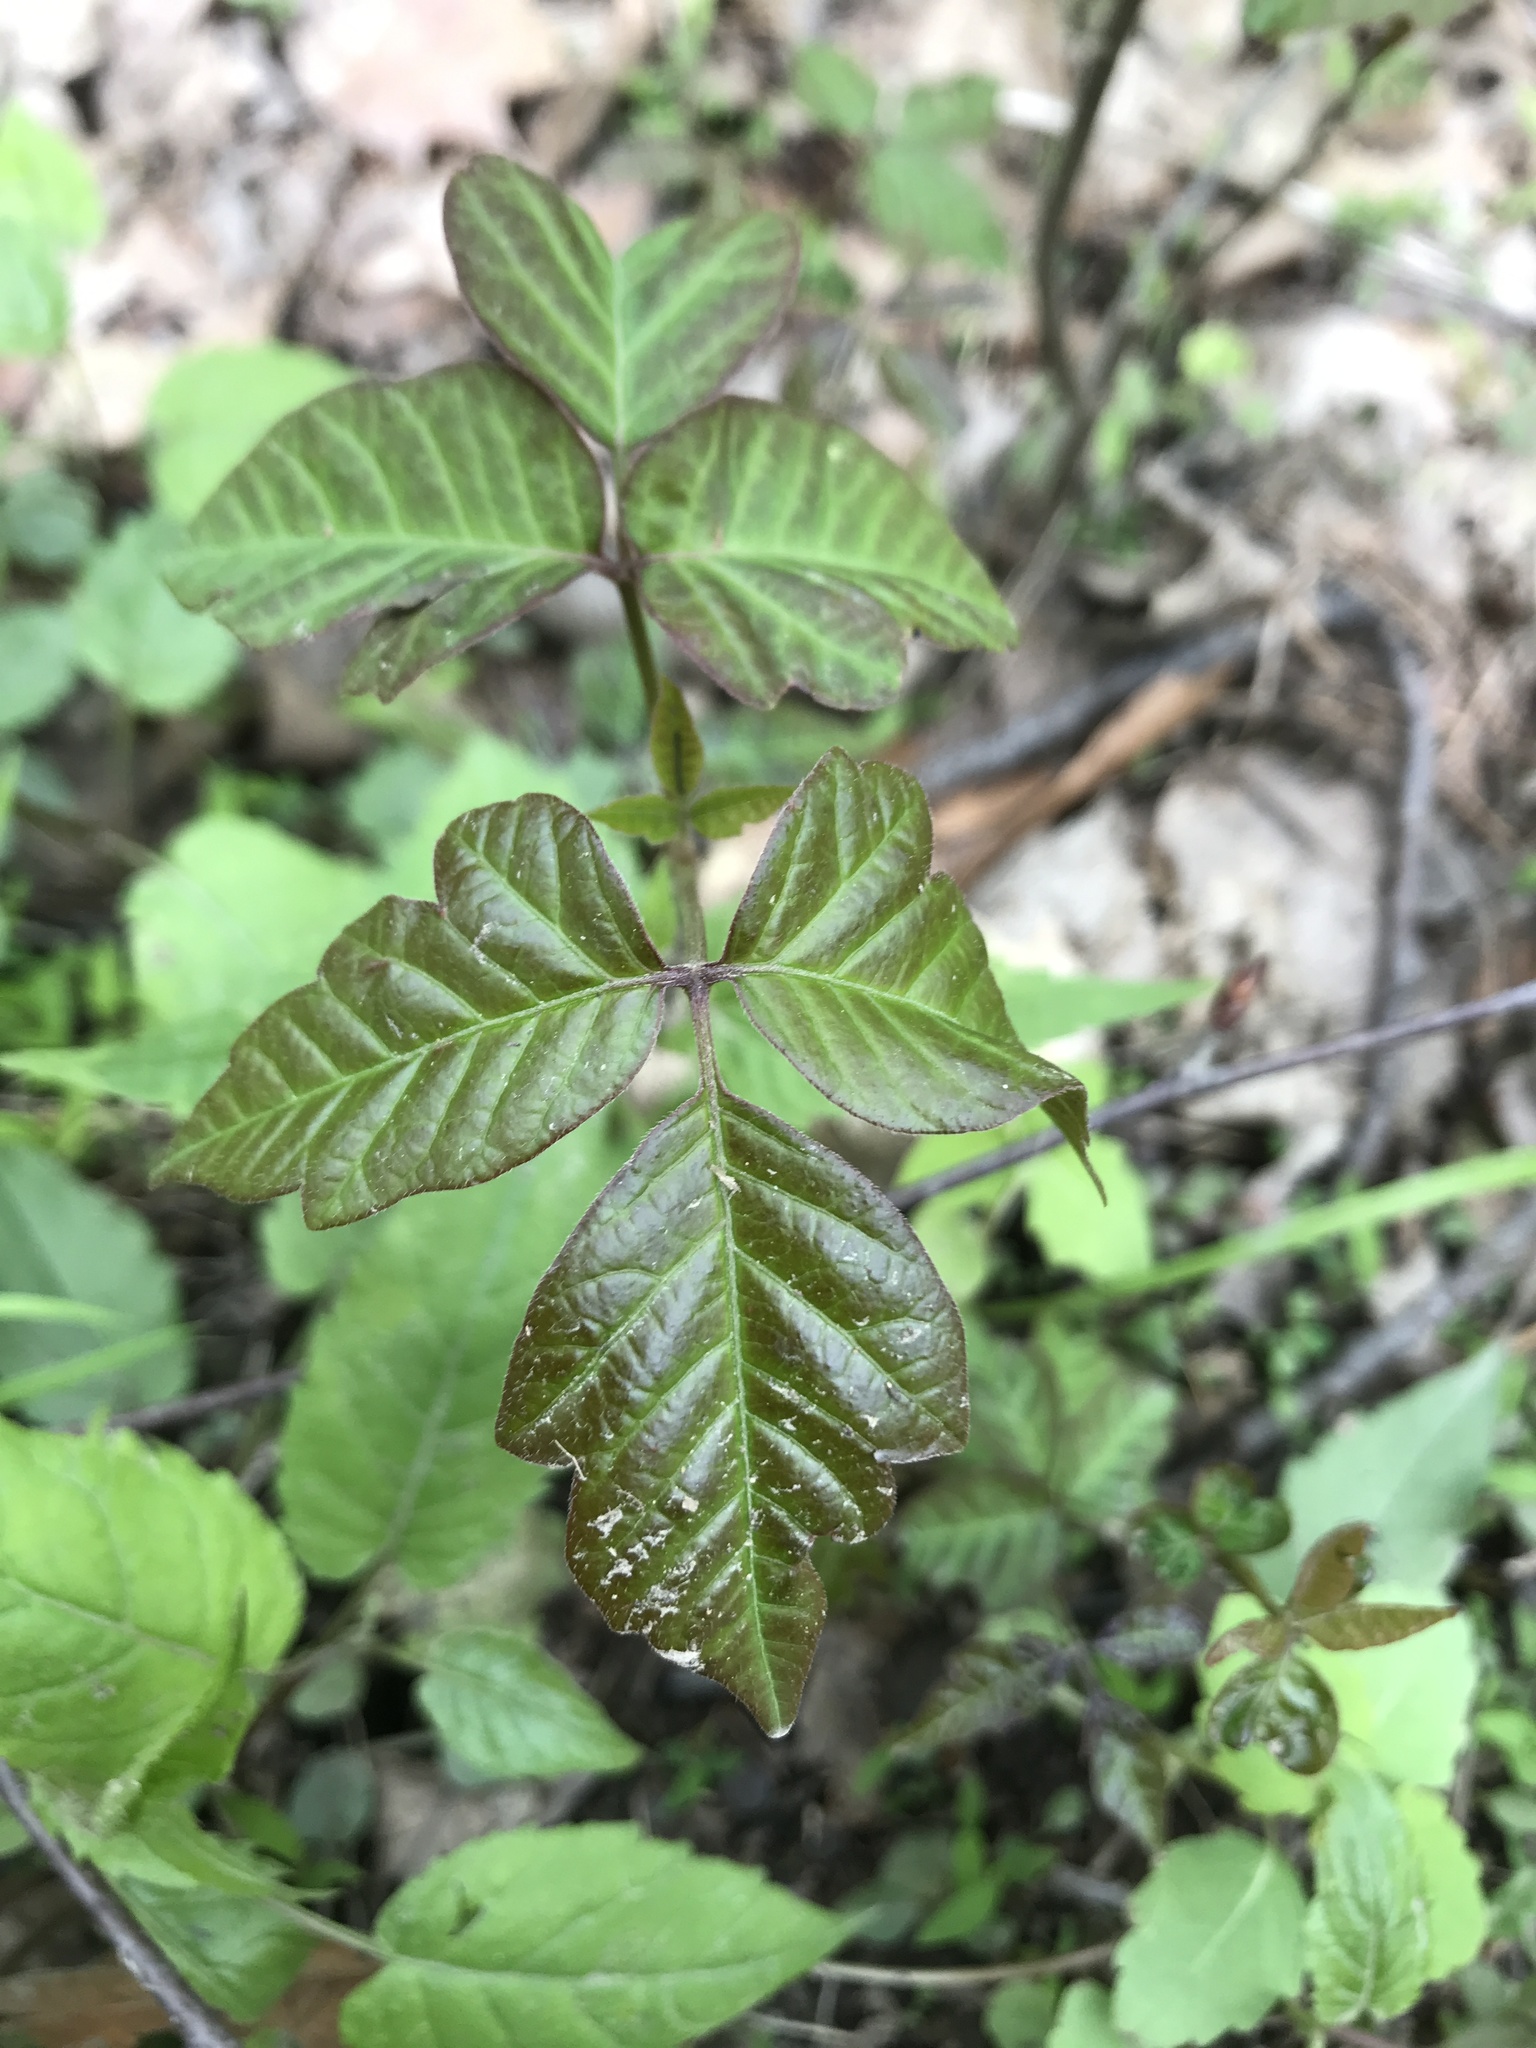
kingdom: Plantae
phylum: Tracheophyta
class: Magnoliopsida
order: Sapindales
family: Anacardiaceae
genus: Toxicodendron
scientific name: Toxicodendron radicans
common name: Poison ivy
